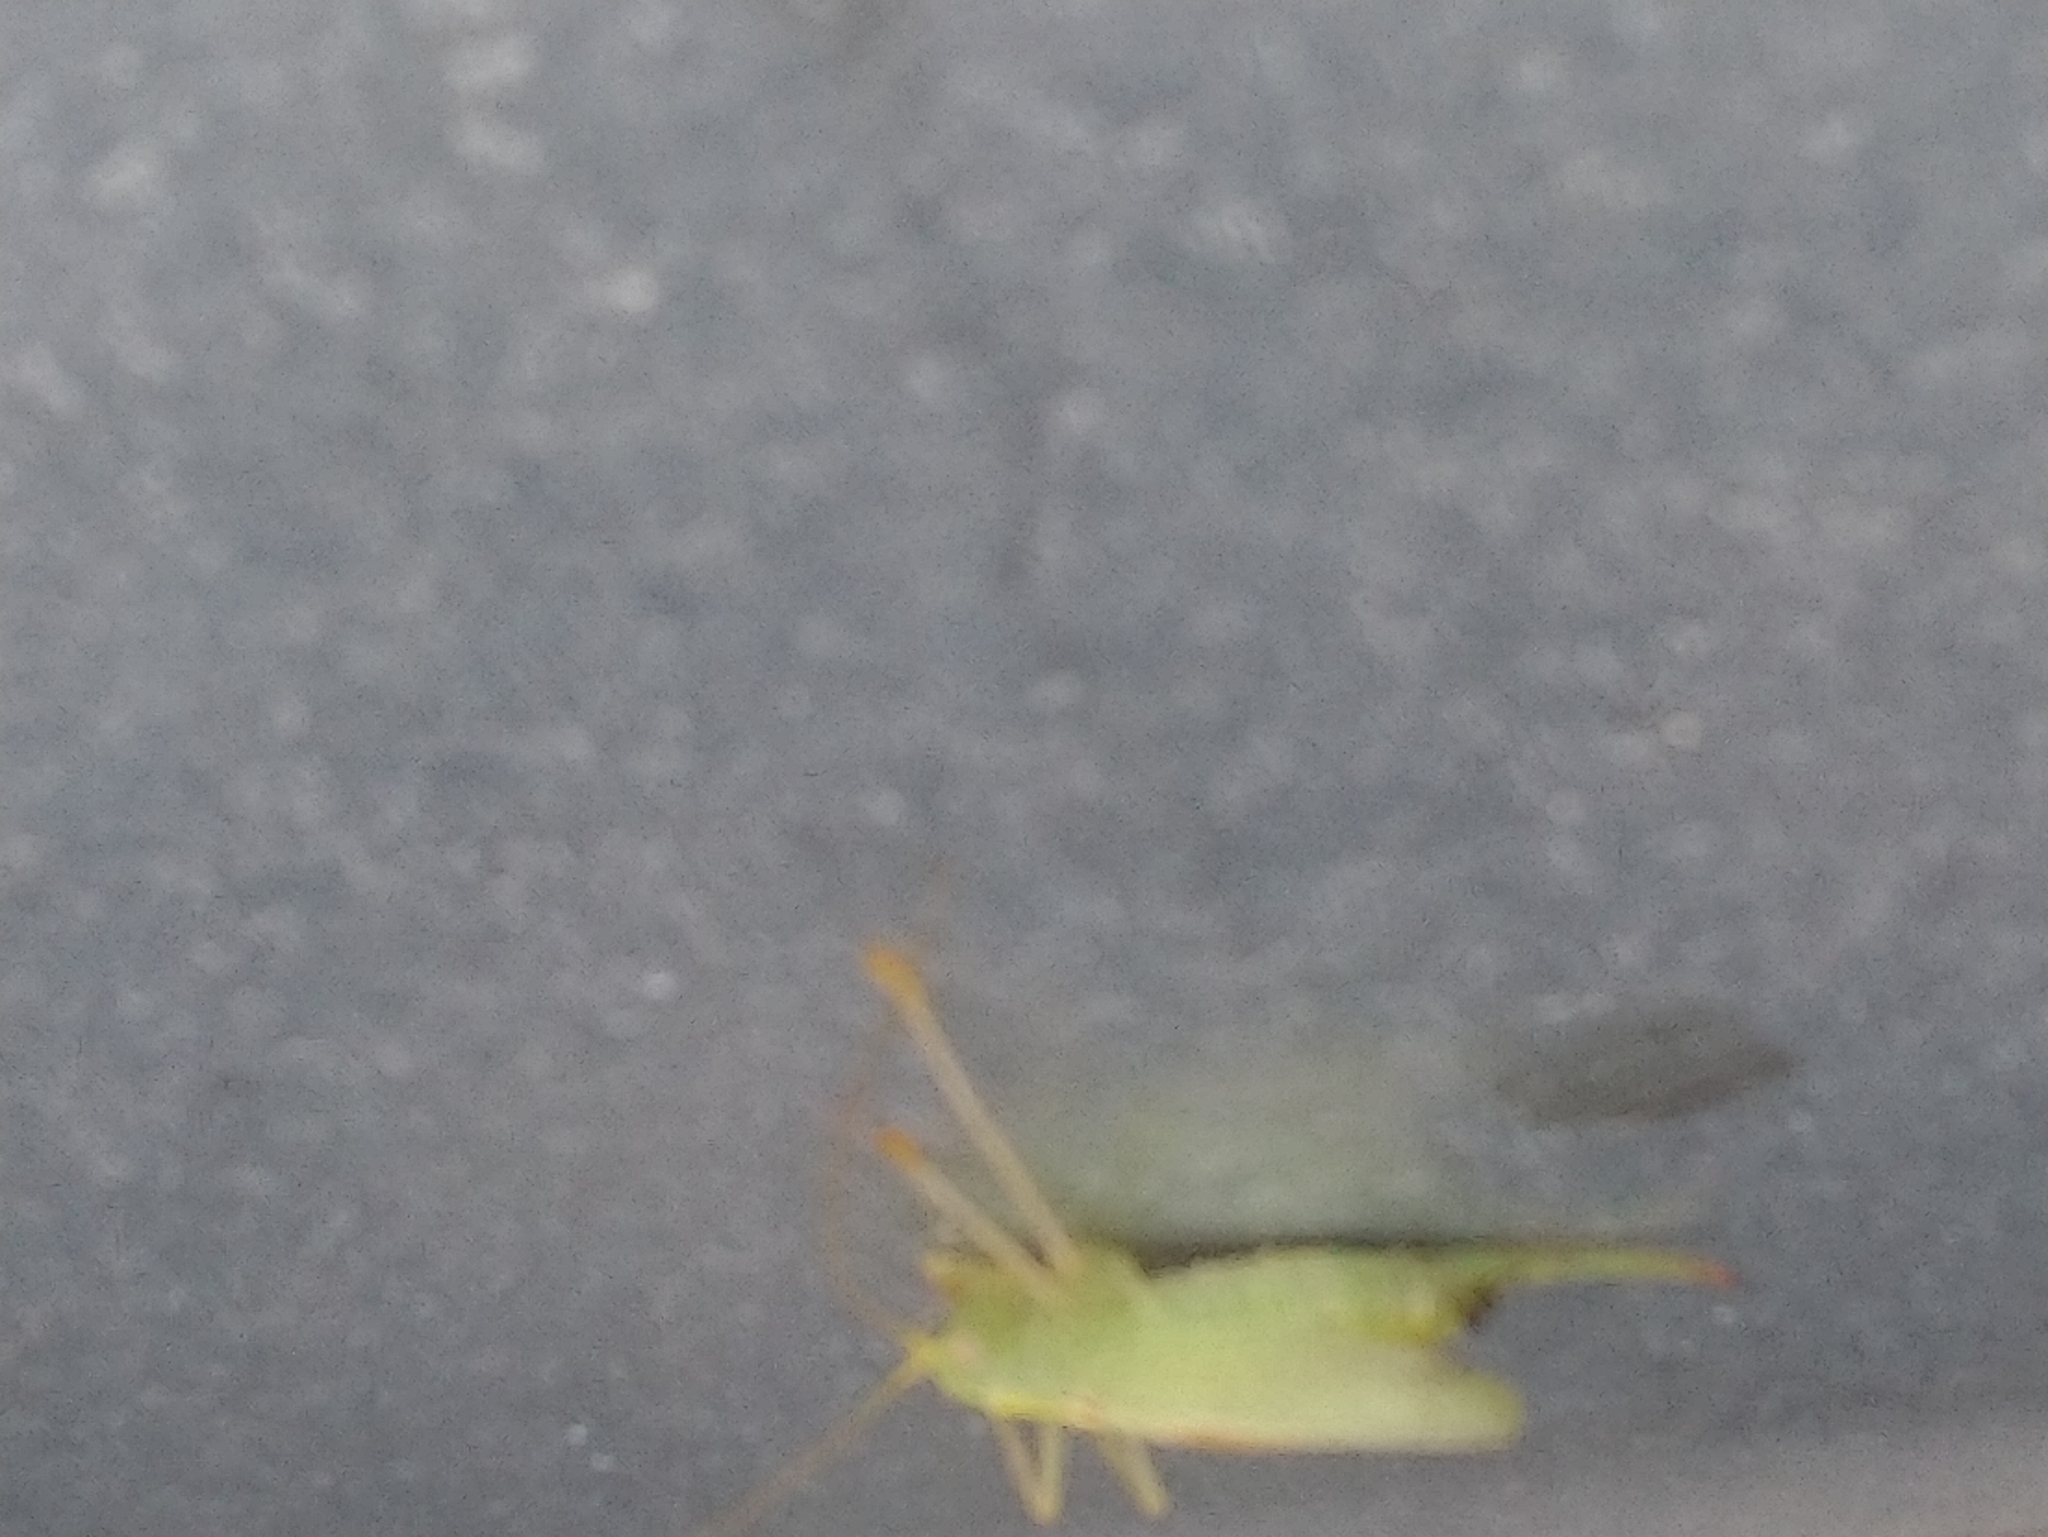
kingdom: Animalia
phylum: Arthropoda
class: Insecta
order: Orthoptera
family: Tettigoniidae
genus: Meconema
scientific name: Meconema thalassinum
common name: Oak bush-cricket
